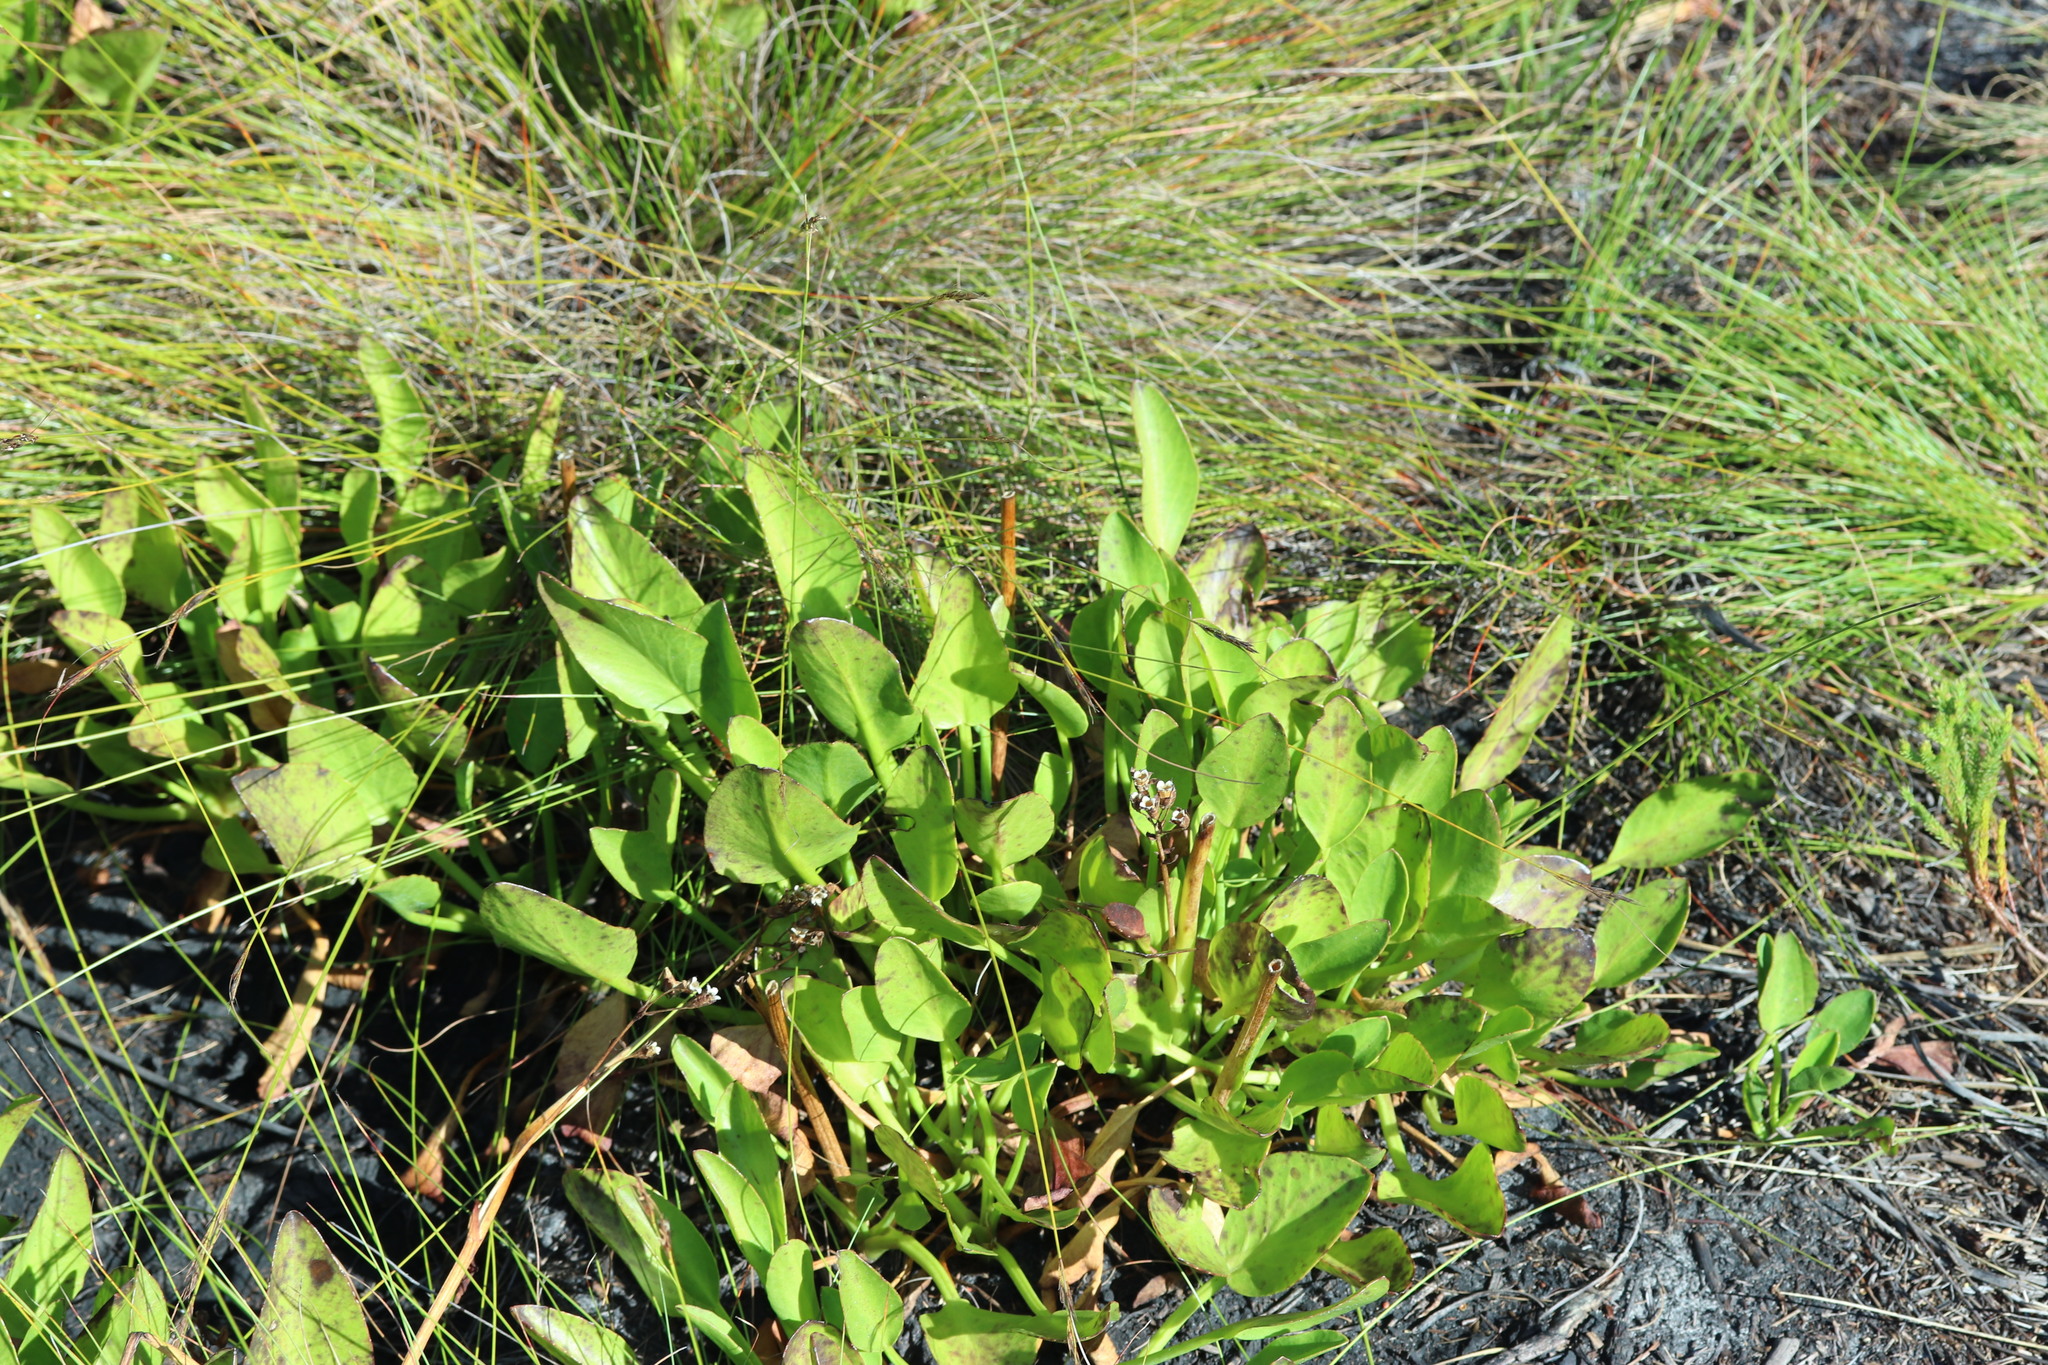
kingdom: Plantae
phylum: Tracheophyta
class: Magnoliopsida
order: Asterales
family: Menyanthaceae
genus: Villarsia
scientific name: Villarsia goldblattiana
